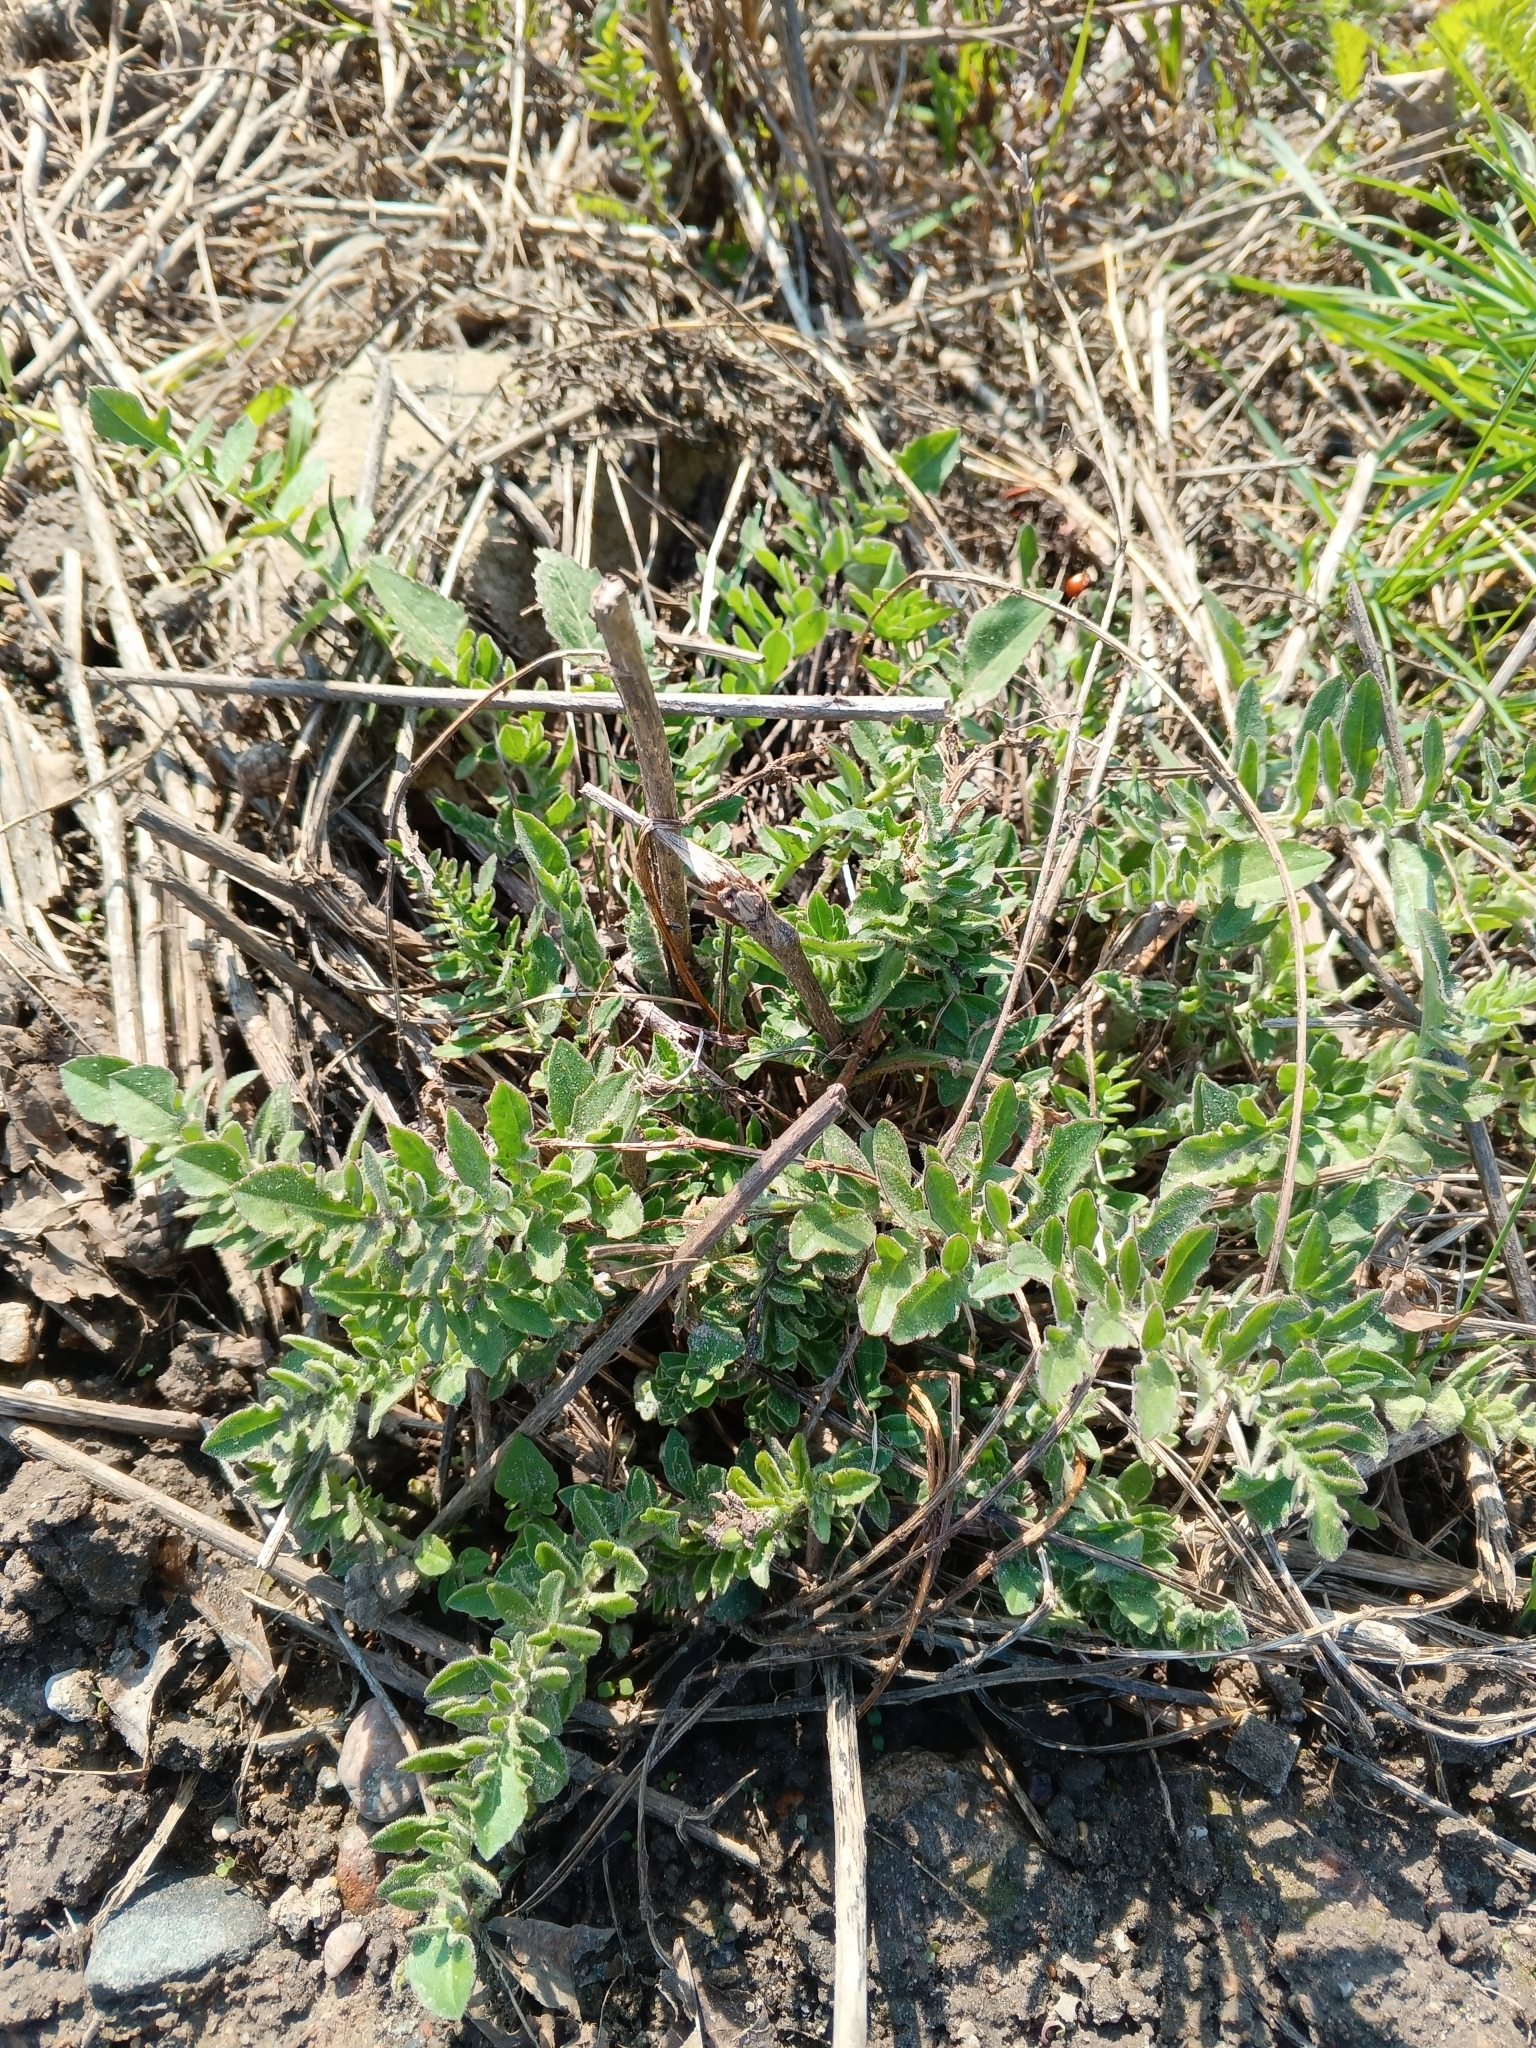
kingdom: Plantae
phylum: Tracheophyta
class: Magnoliopsida
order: Asterales
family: Asteraceae
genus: Centaurea
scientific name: Centaurea scabiosa
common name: Greater knapweed
